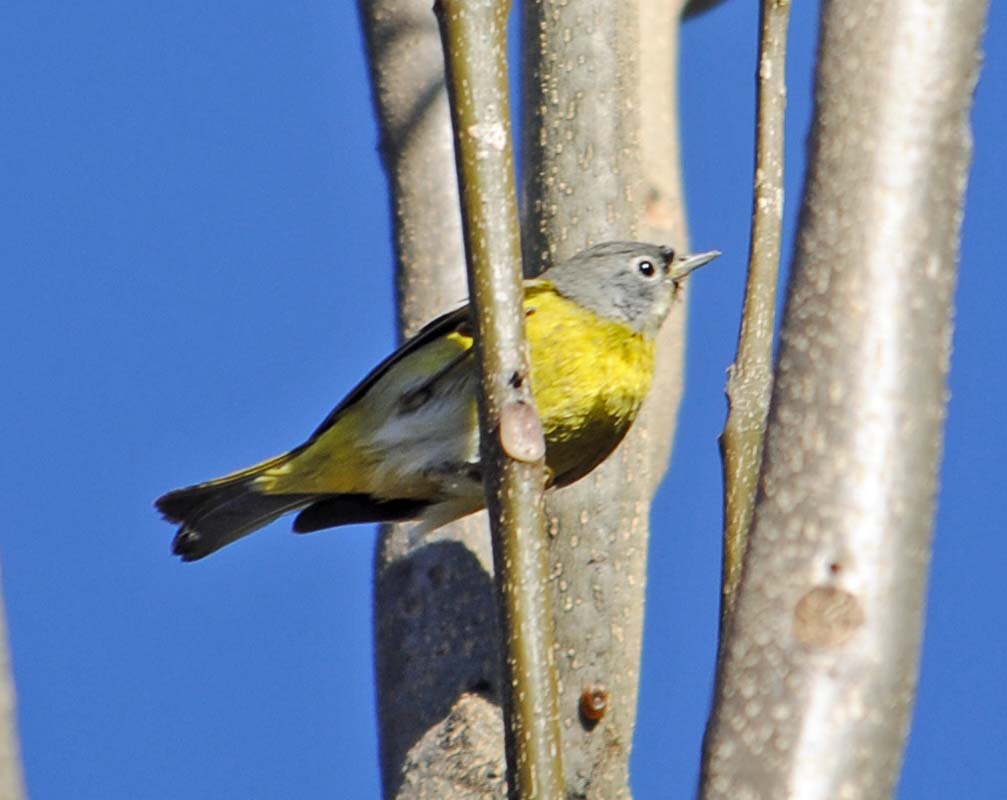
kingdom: Animalia
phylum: Chordata
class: Aves
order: Passeriformes
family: Parulidae
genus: Leiothlypis
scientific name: Leiothlypis ruficapilla
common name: Nashville warbler
